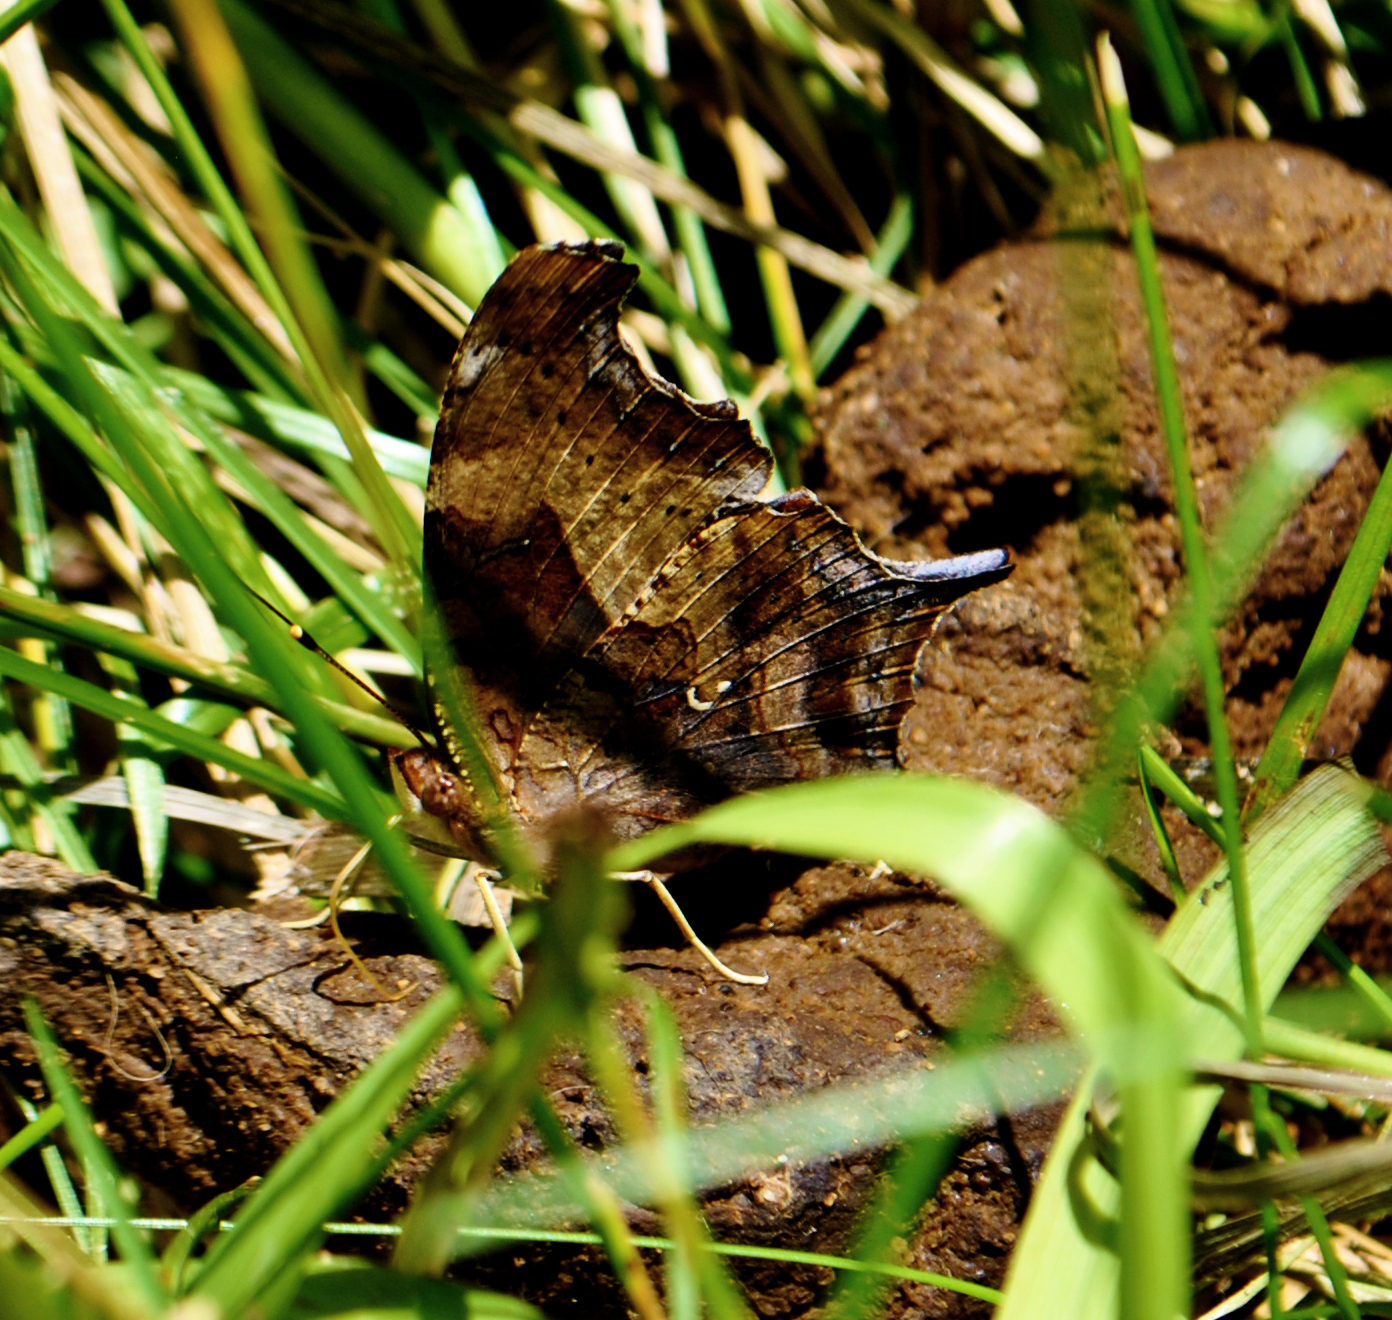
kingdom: Animalia
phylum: Arthropoda
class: Insecta
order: Lepidoptera
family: Nymphalidae
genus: Polygonia
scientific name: Polygonia interrogationis
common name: Question mark
